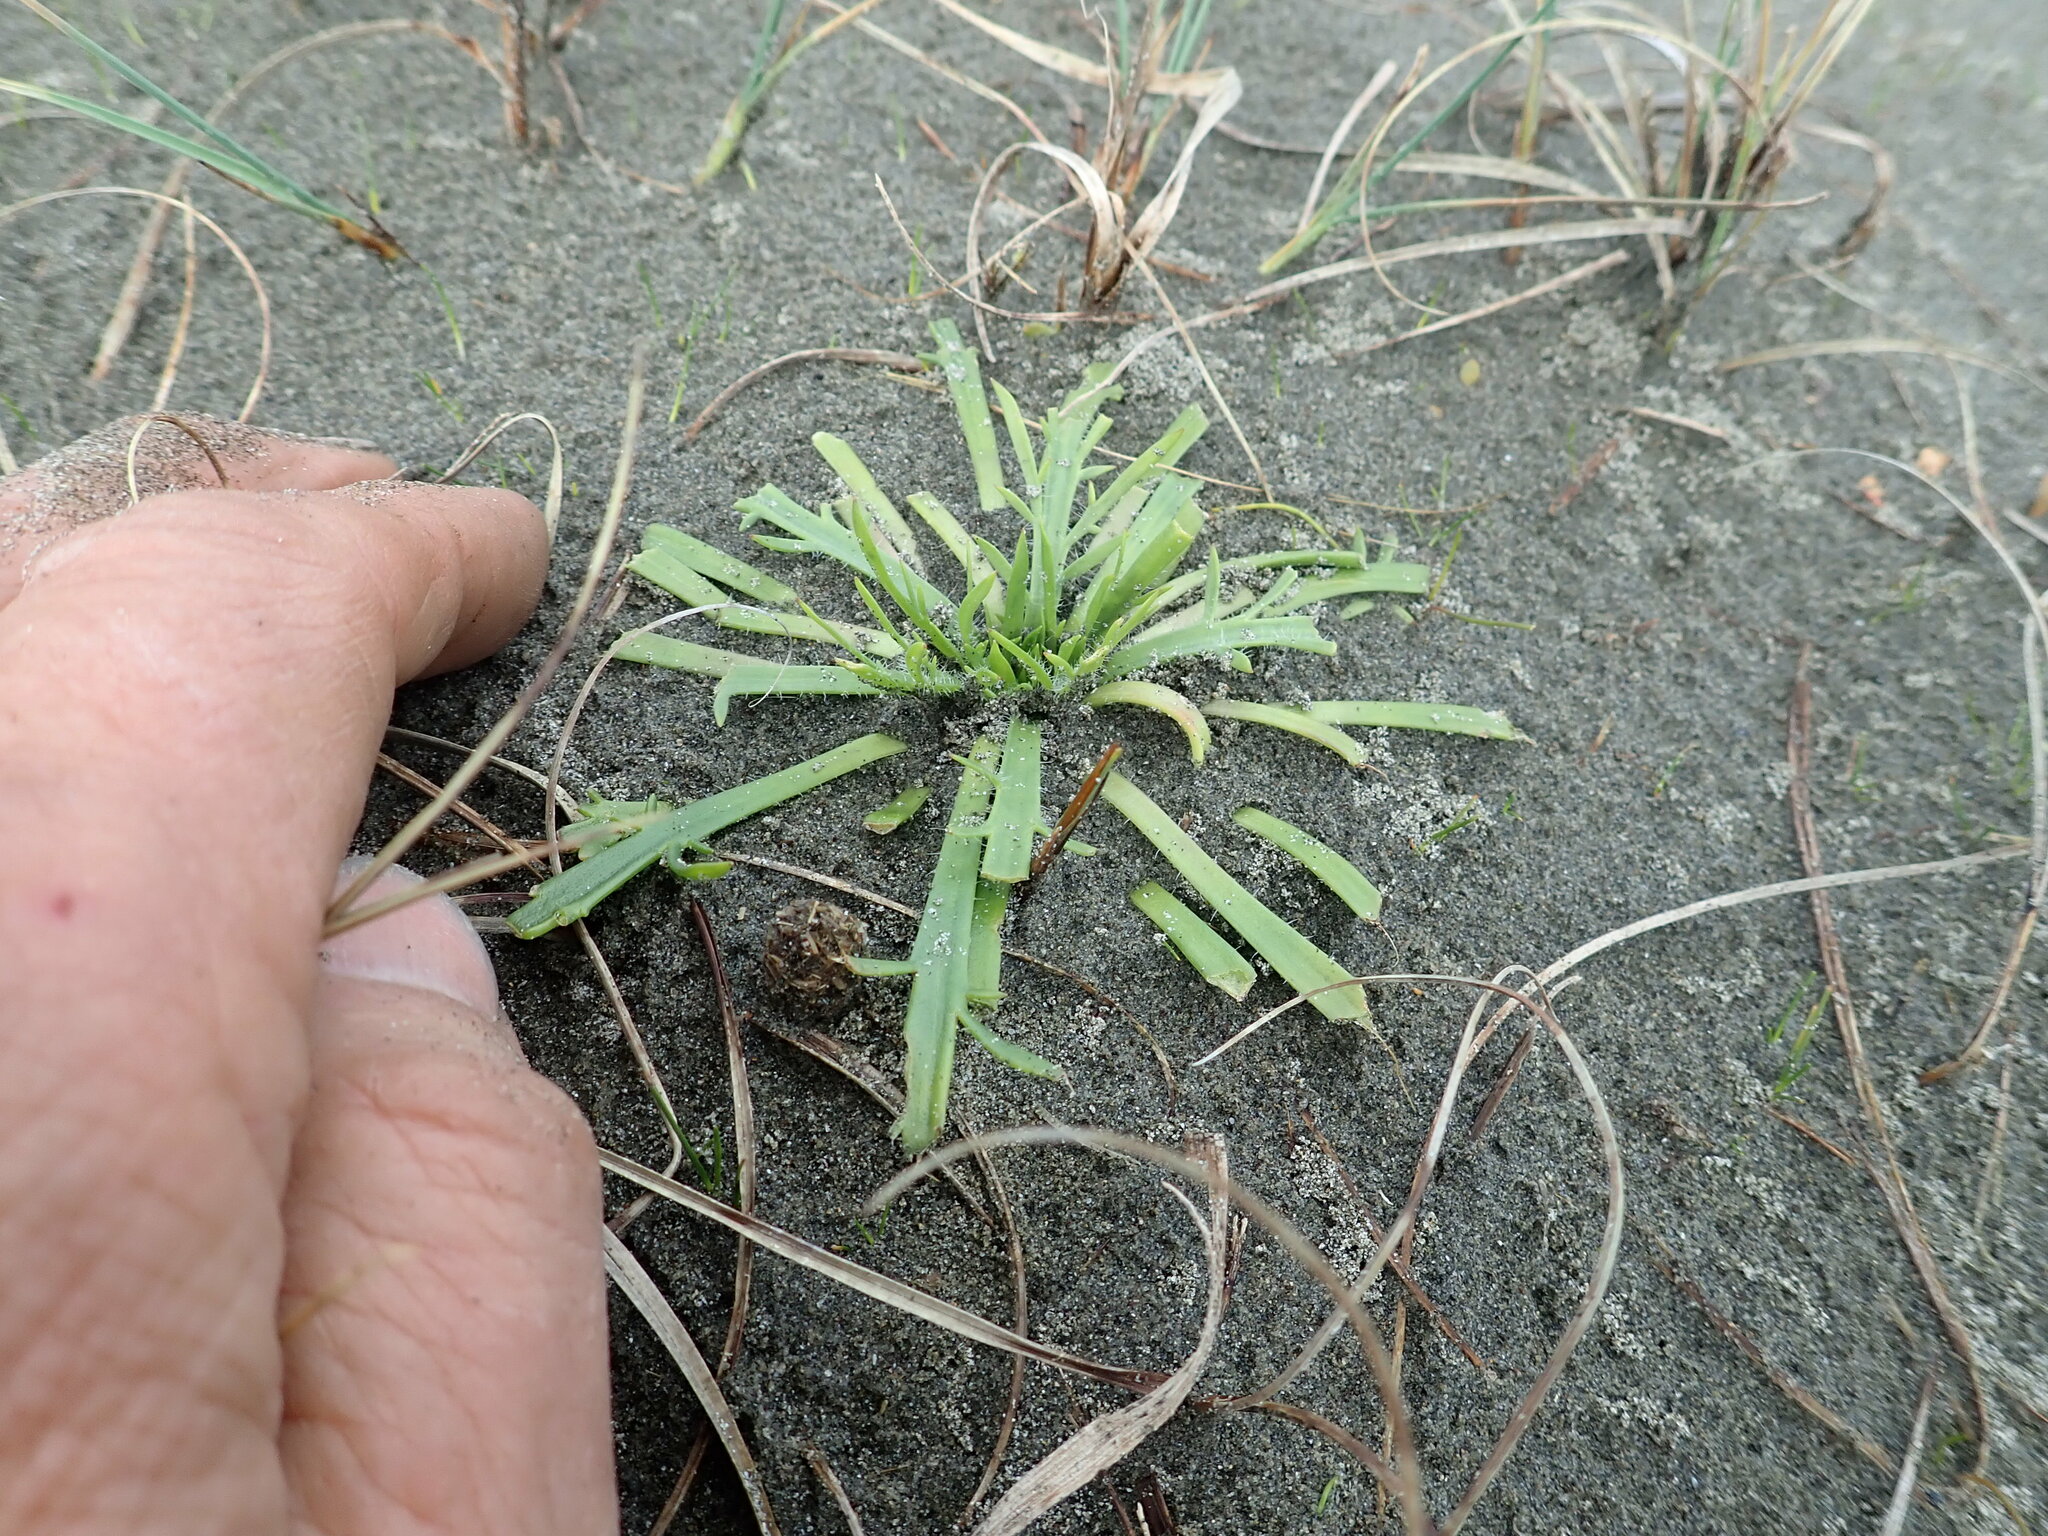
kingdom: Plantae
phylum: Tracheophyta
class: Magnoliopsida
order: Lamiales
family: Plantaginaceae
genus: Plantago
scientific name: Plantago coronopus
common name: Buck's-horn plantain
